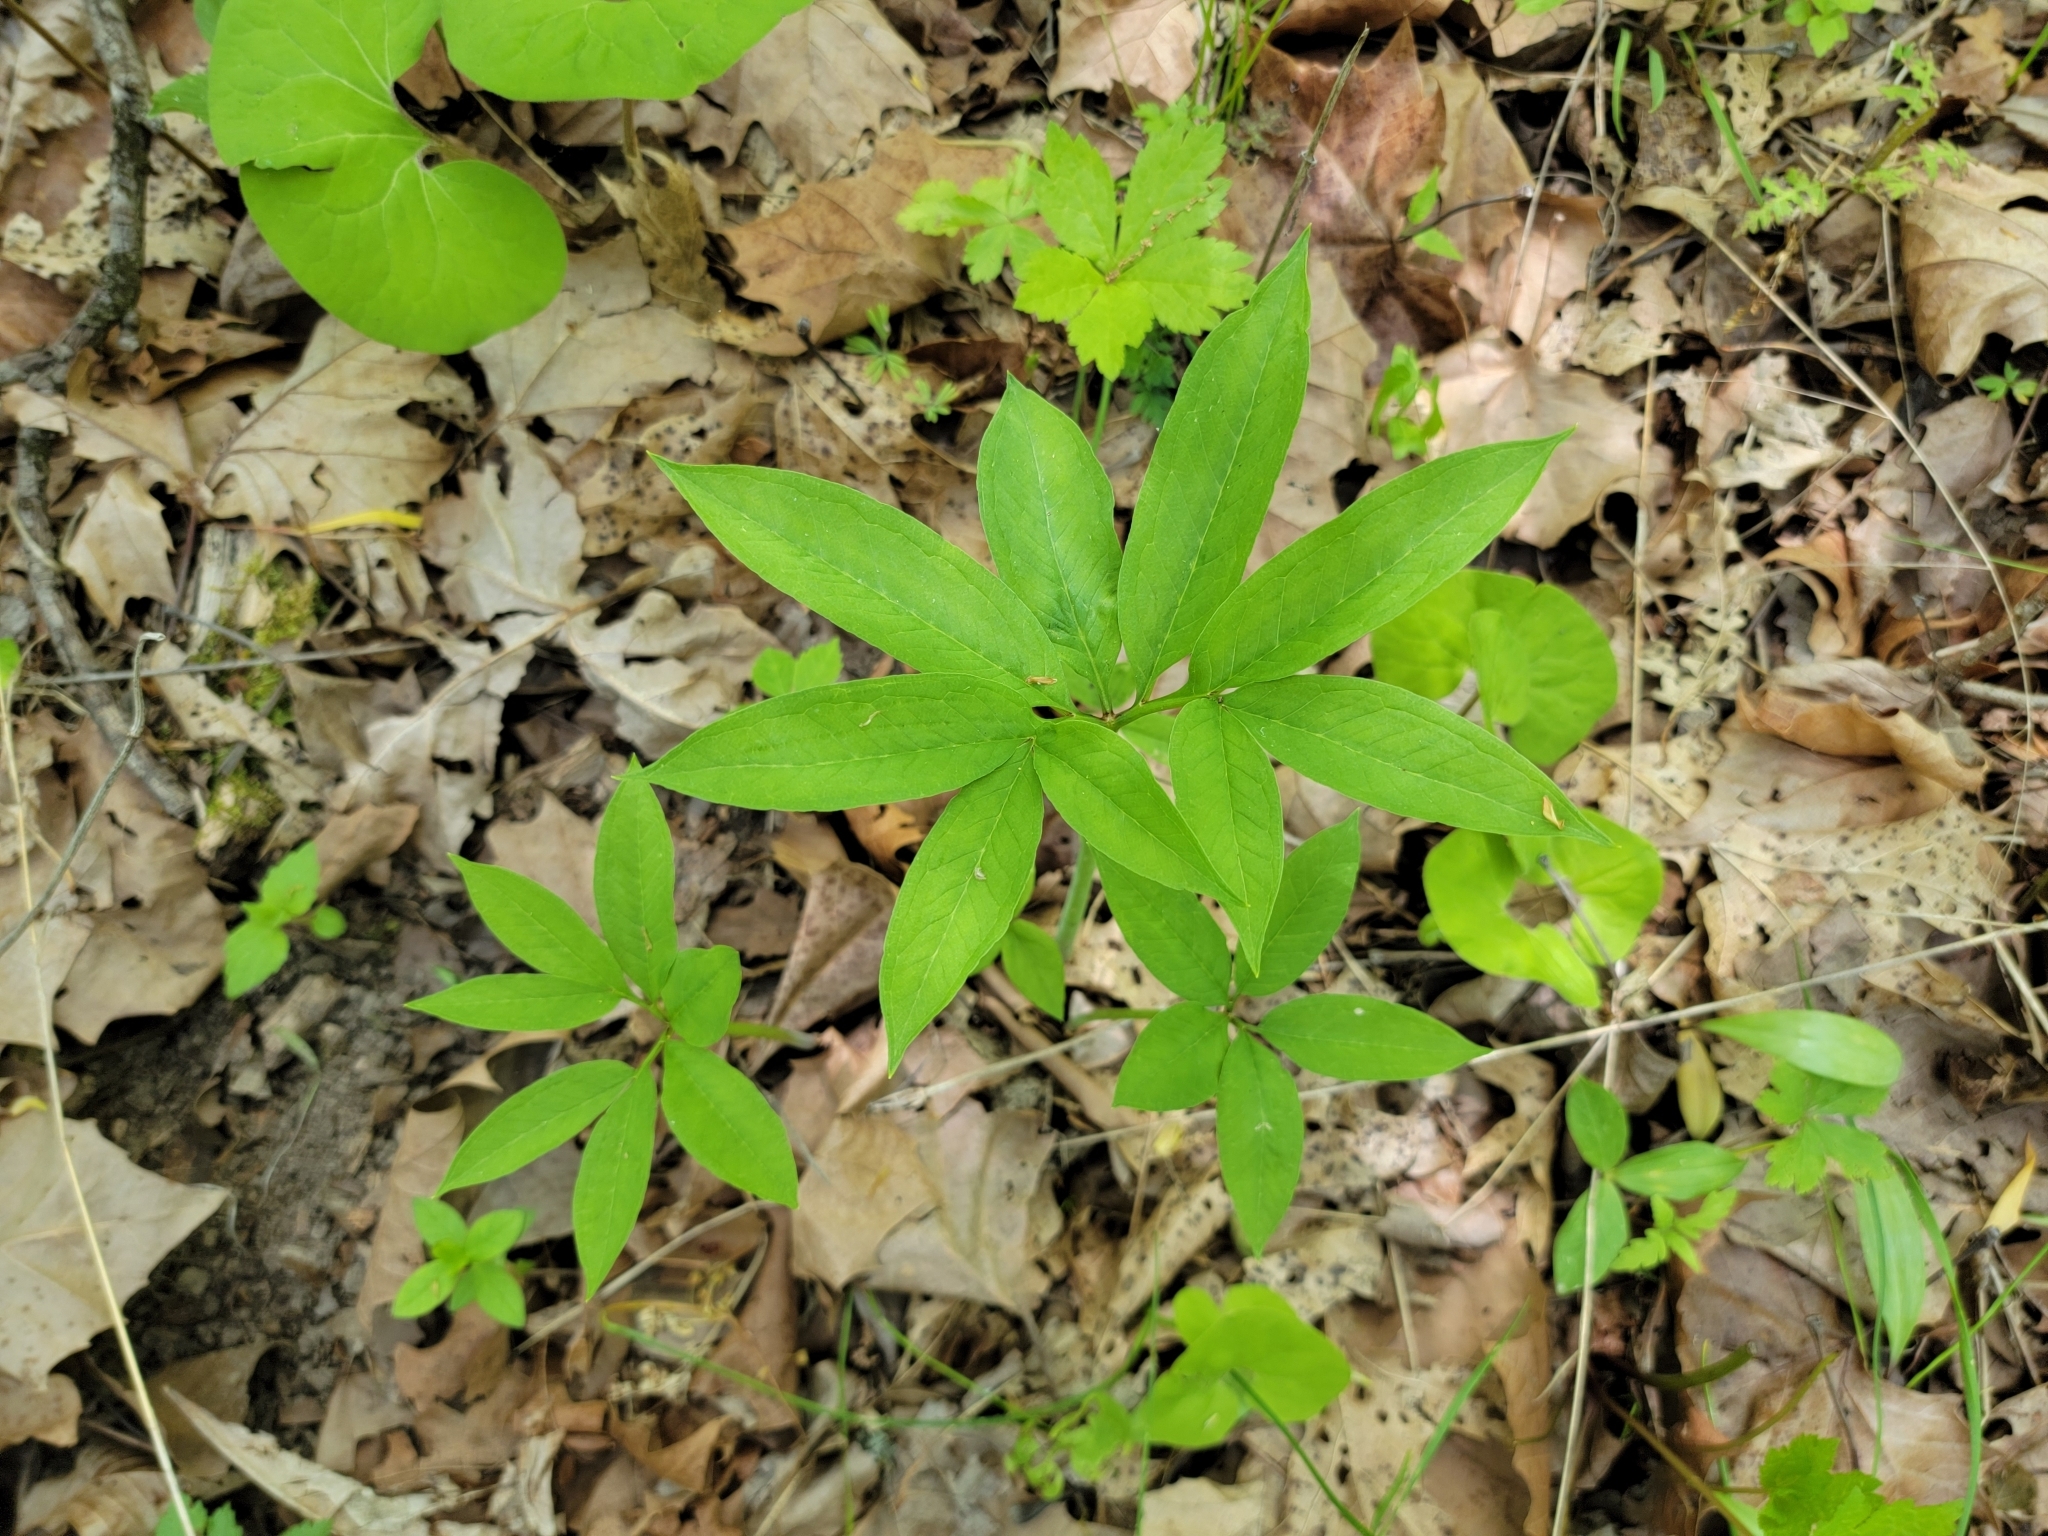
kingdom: Plantae
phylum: Tracheophyta
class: Liliopsida
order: Alismatales
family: Araceae
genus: Arisaema
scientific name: Arisaema dracontium
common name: Dragon-arum
